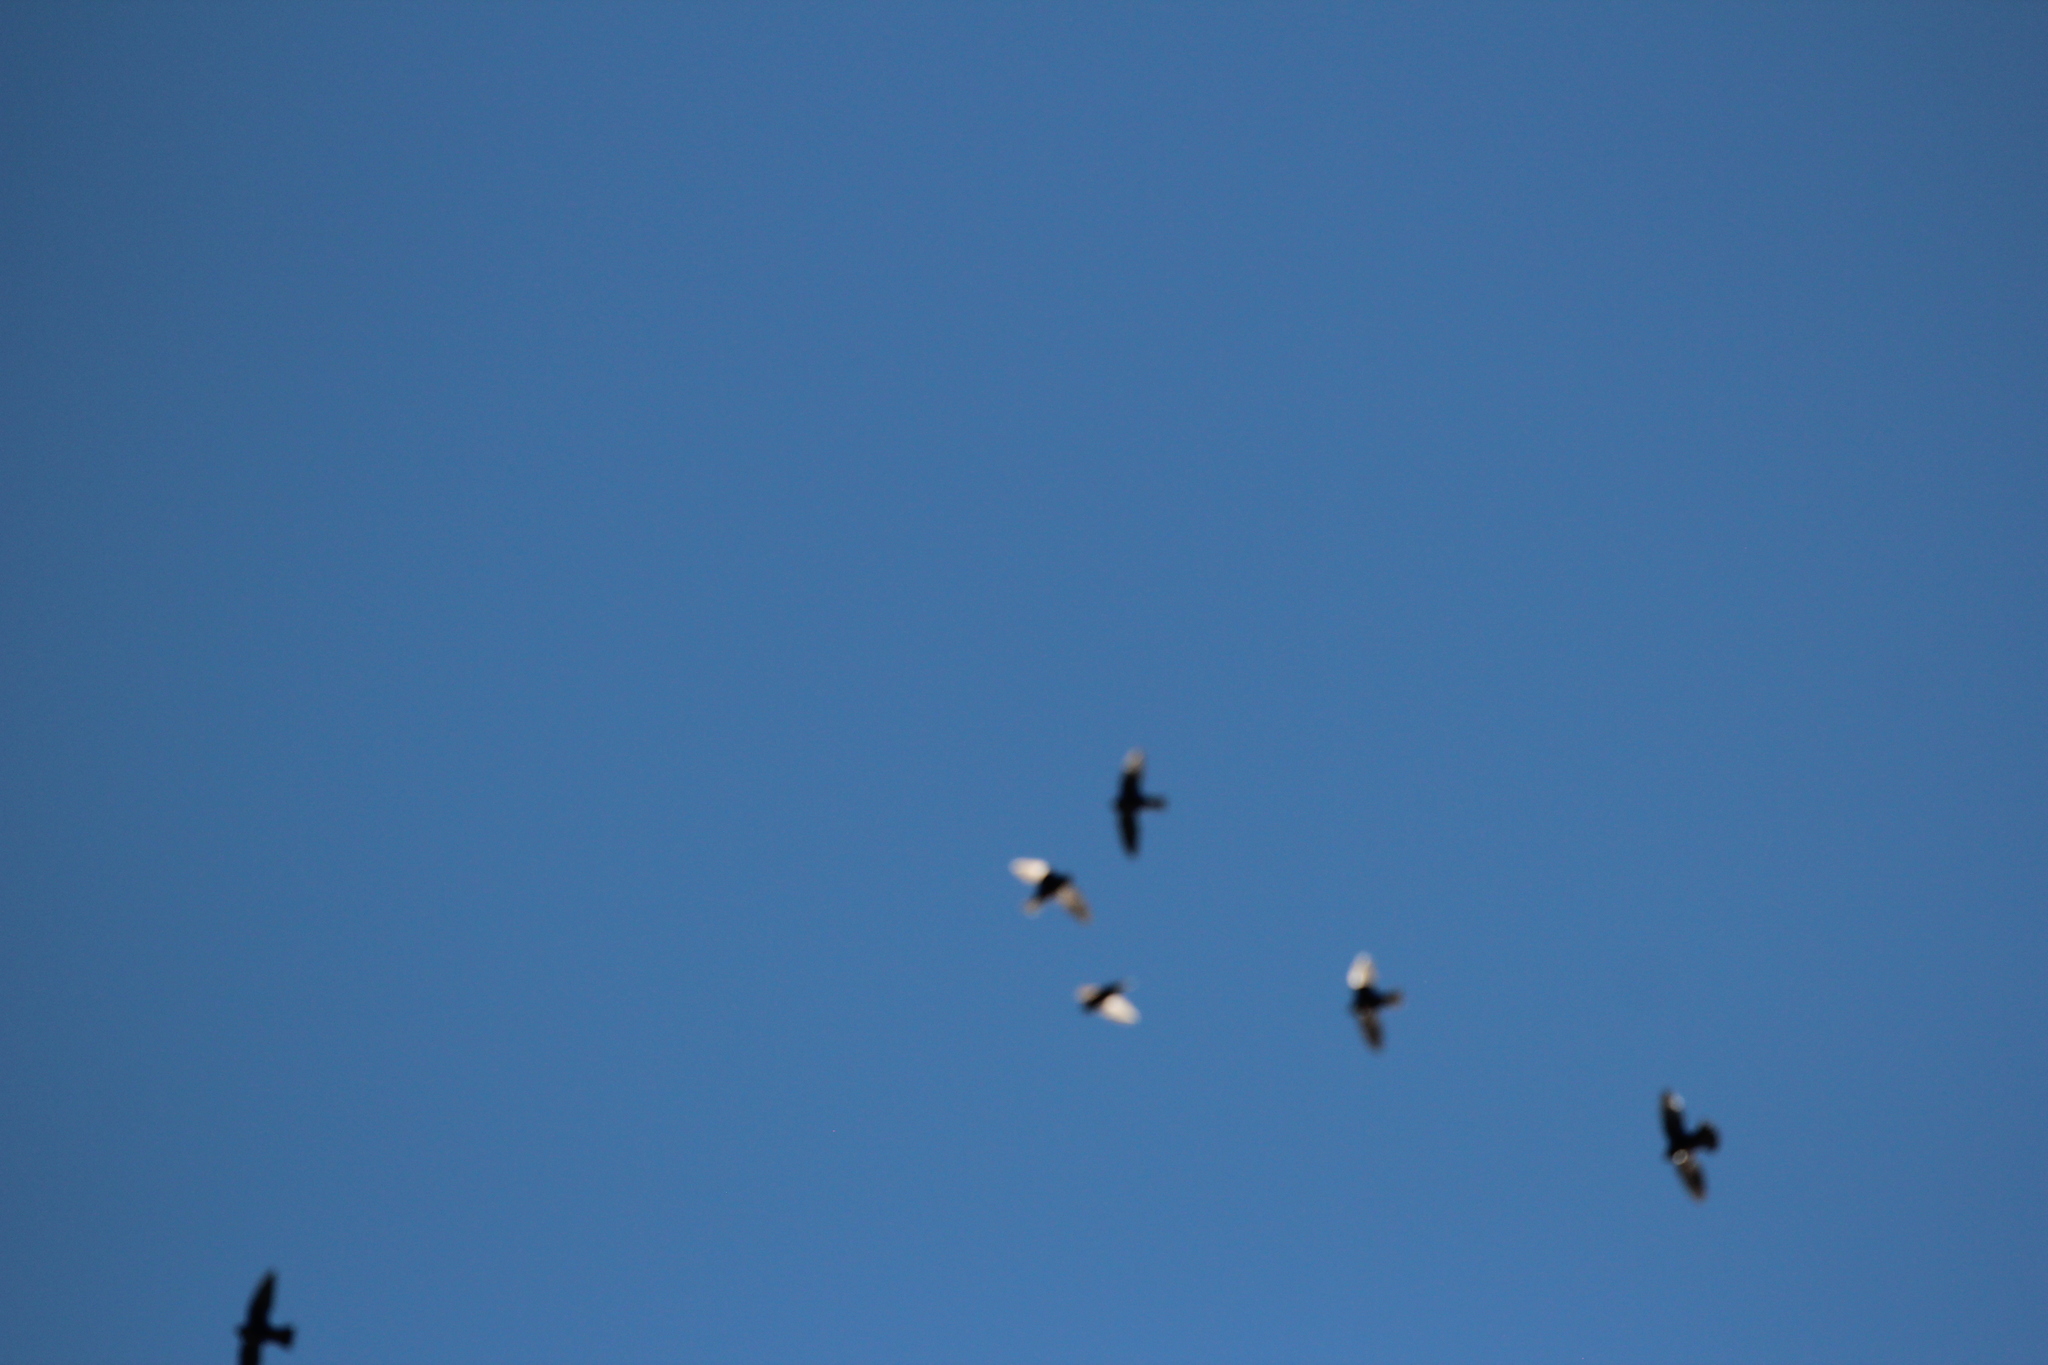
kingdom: Animalia
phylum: Chordata
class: Aves
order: Apodiformes
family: Apodidae
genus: Streptoprocne
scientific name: Streptoprocne zonaris
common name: White-collared swift
